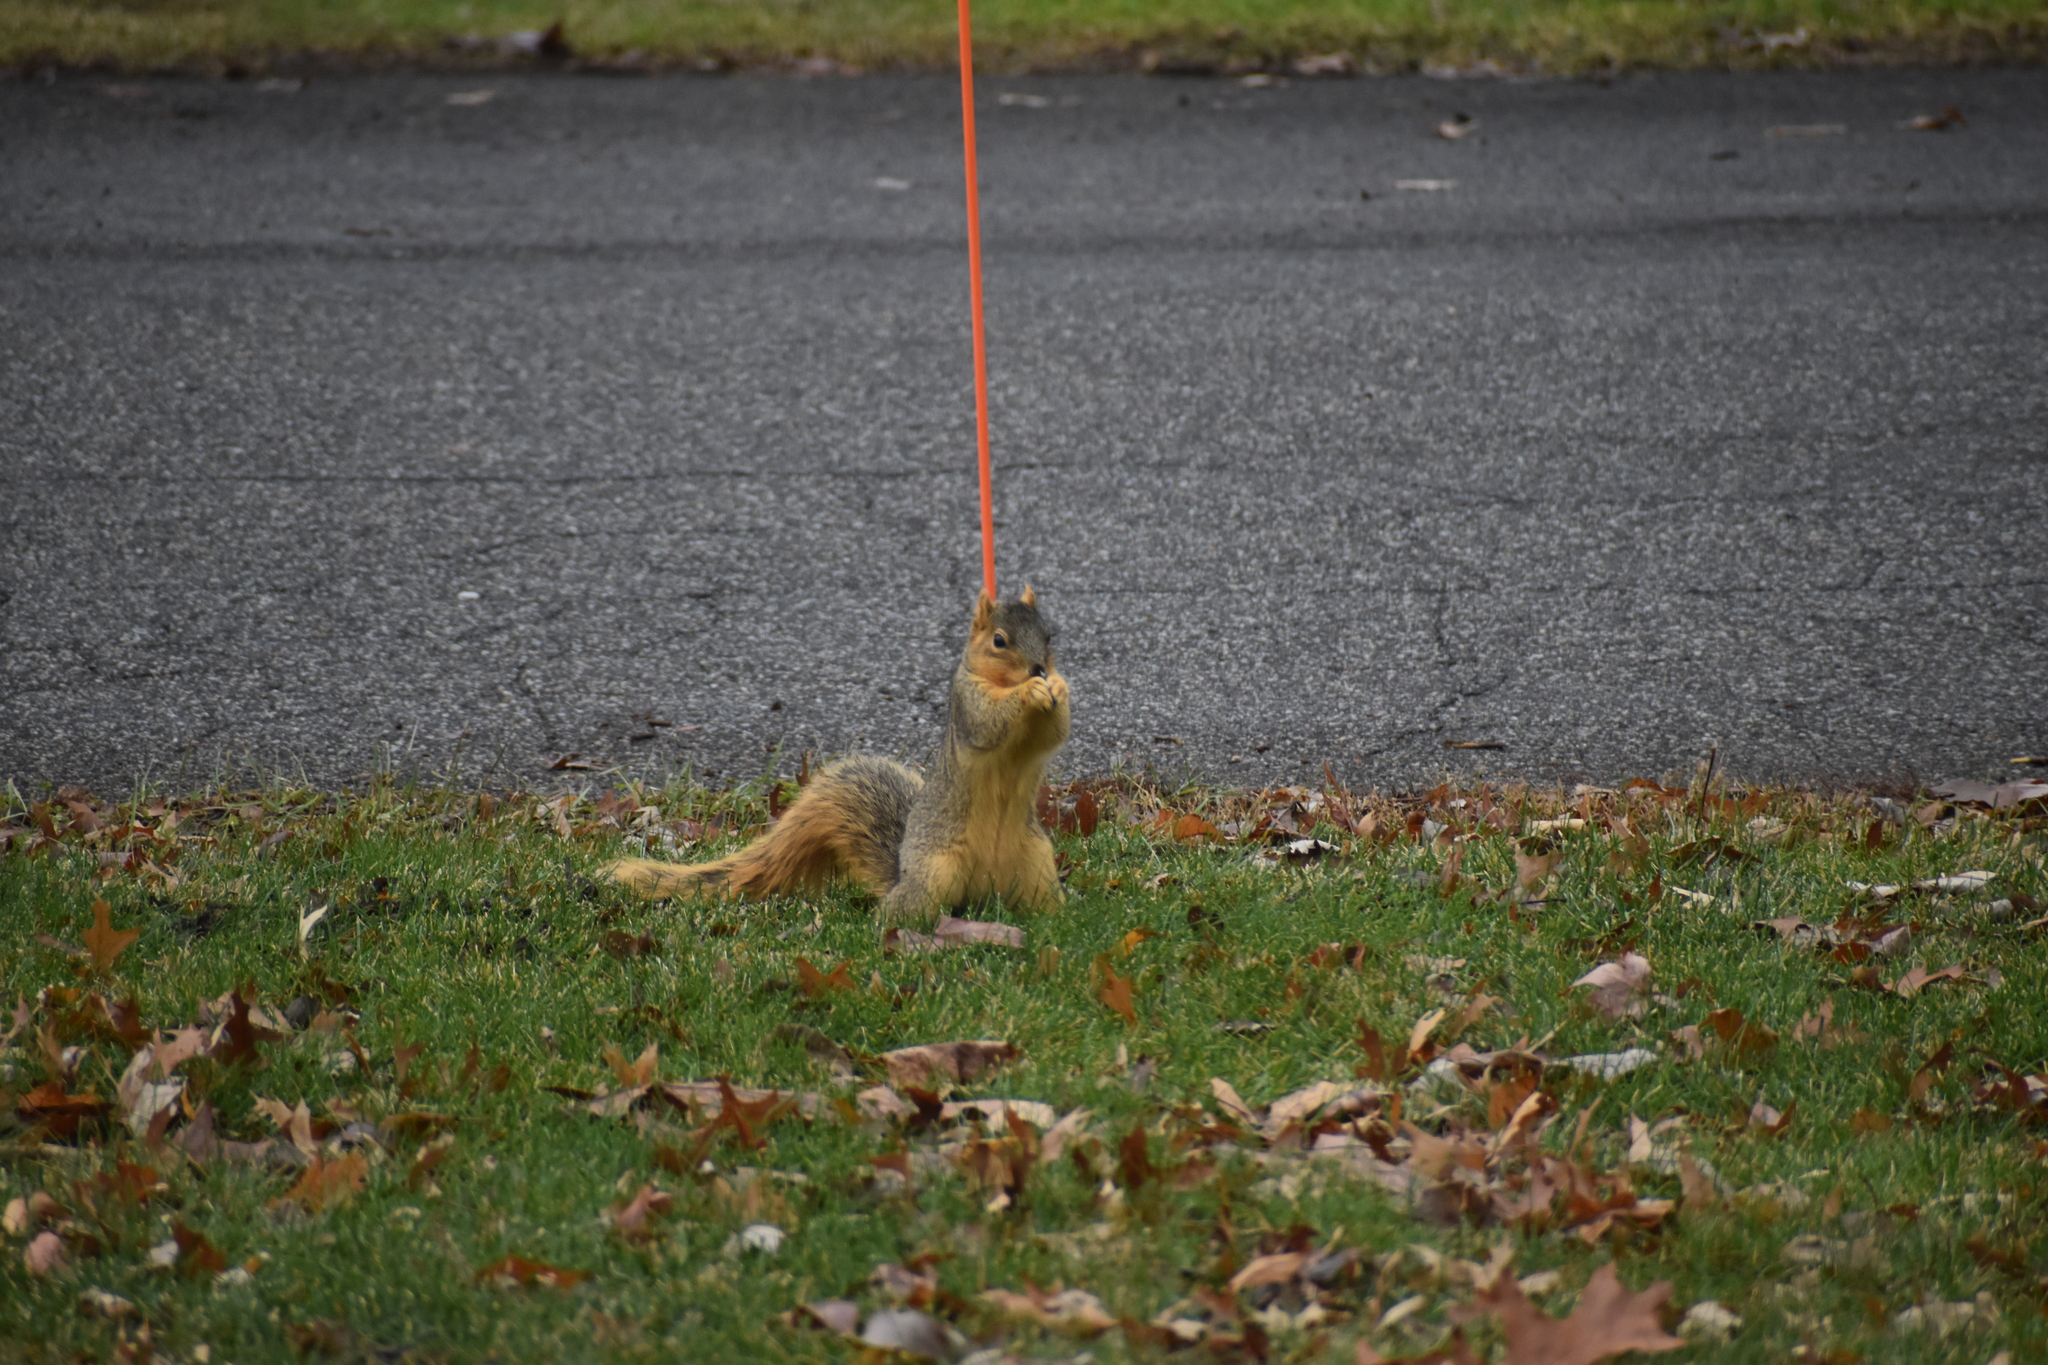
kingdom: Animalia
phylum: Chordata
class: Mammalia
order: Rodentia
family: Sciuridae
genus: Sciurus
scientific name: Sciurus niger
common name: Fox squirrel
